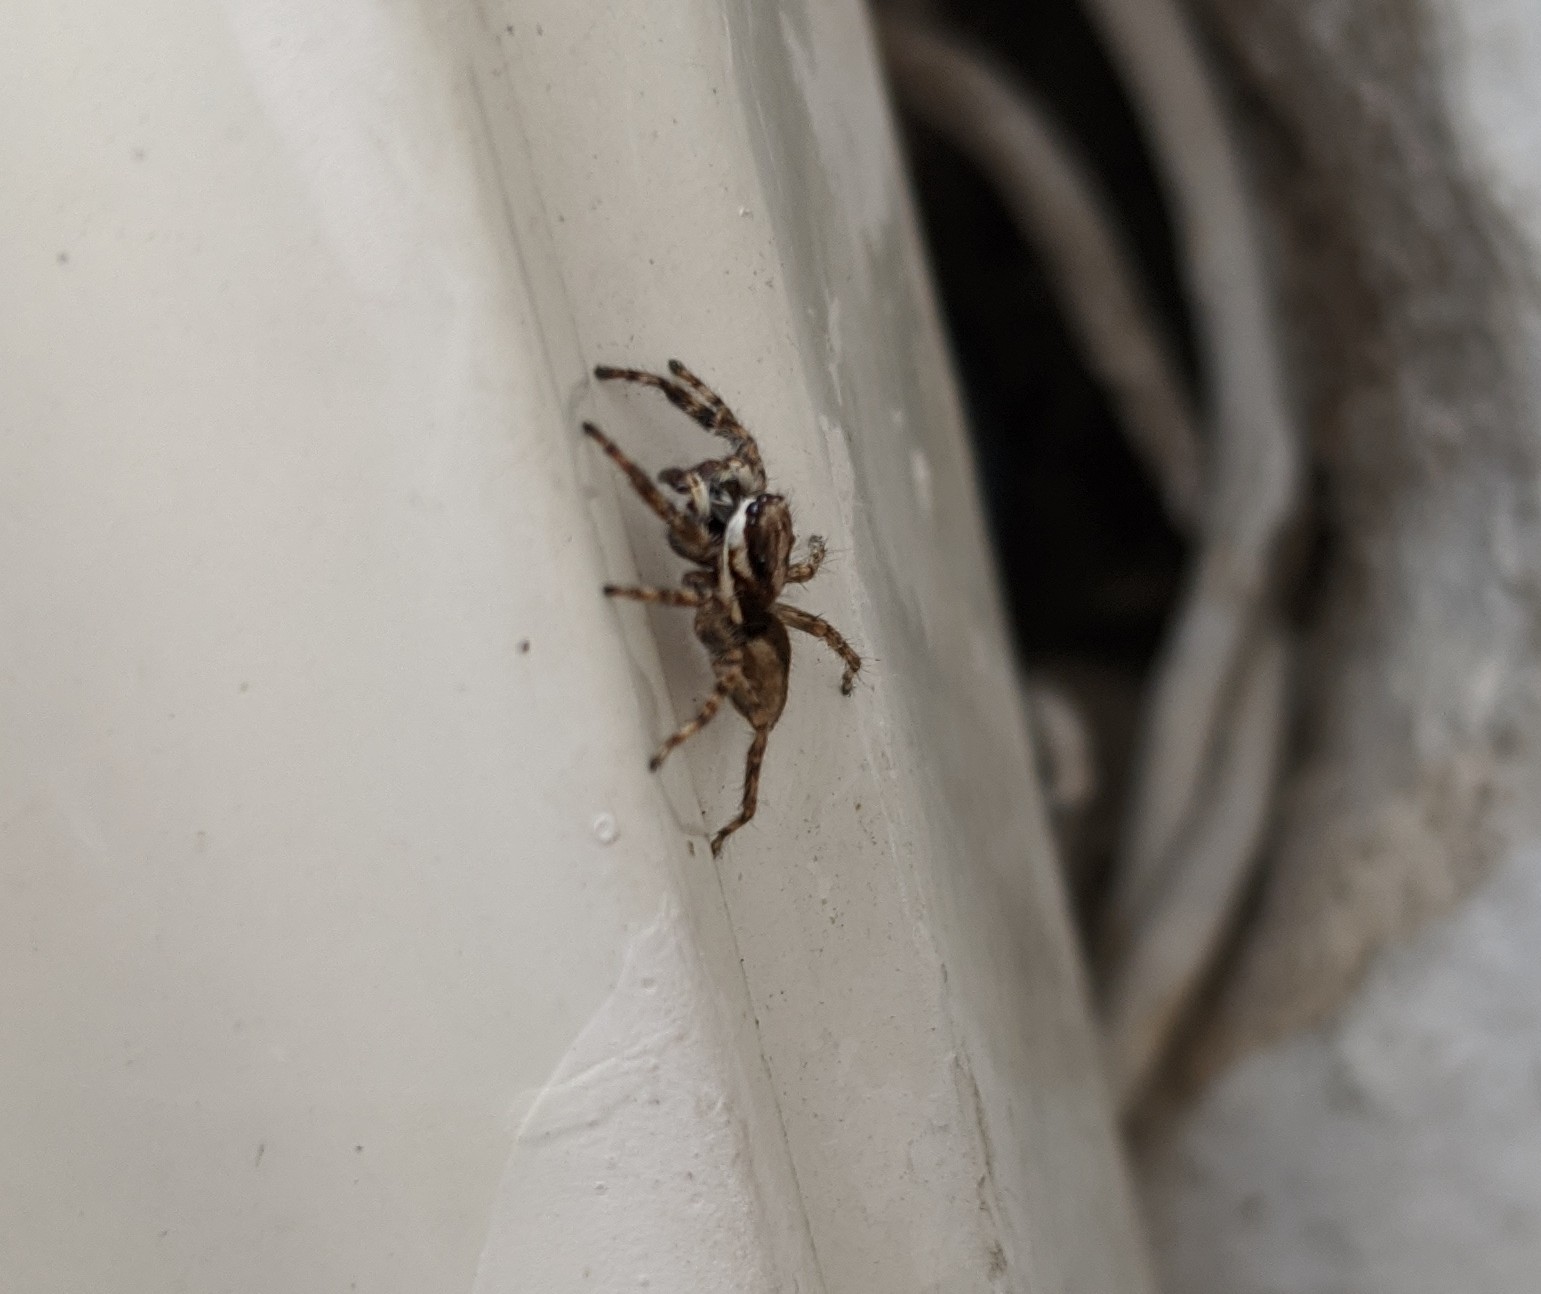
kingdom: Animalia
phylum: Arthropoda
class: Arachnida
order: Araneae
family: Salticidae
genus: Menemerus
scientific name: Menemerus bivittatus
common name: Gray wall jumper
